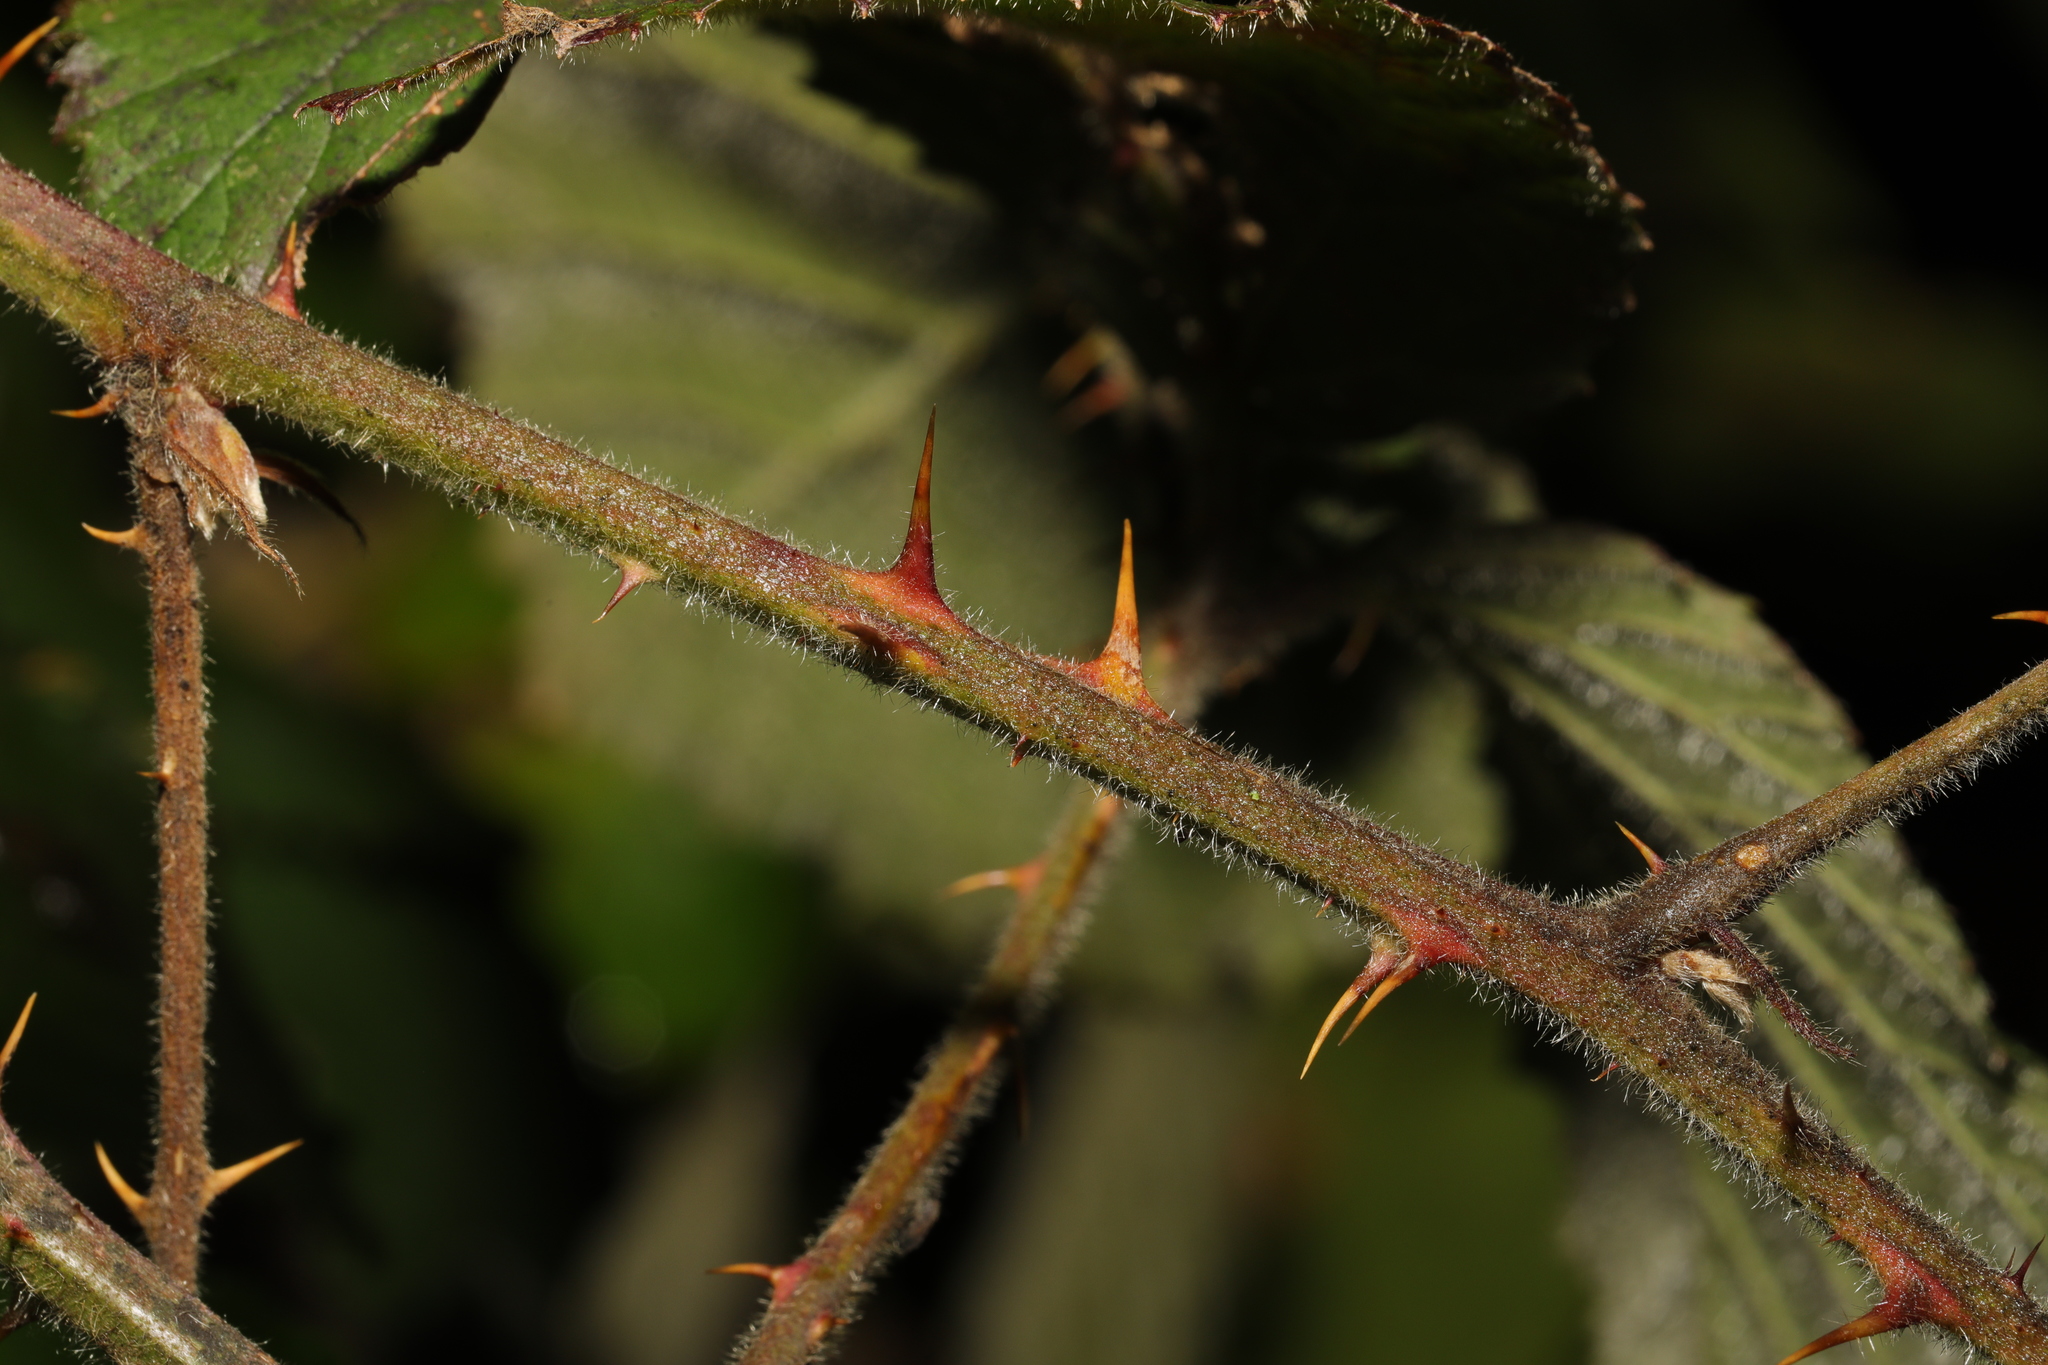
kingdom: Plantae
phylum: Tracheophyta
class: Magnoliopsida
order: Rosales
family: Rosaceae
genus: Rubus
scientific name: Rubus vestitus
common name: European blackberry
